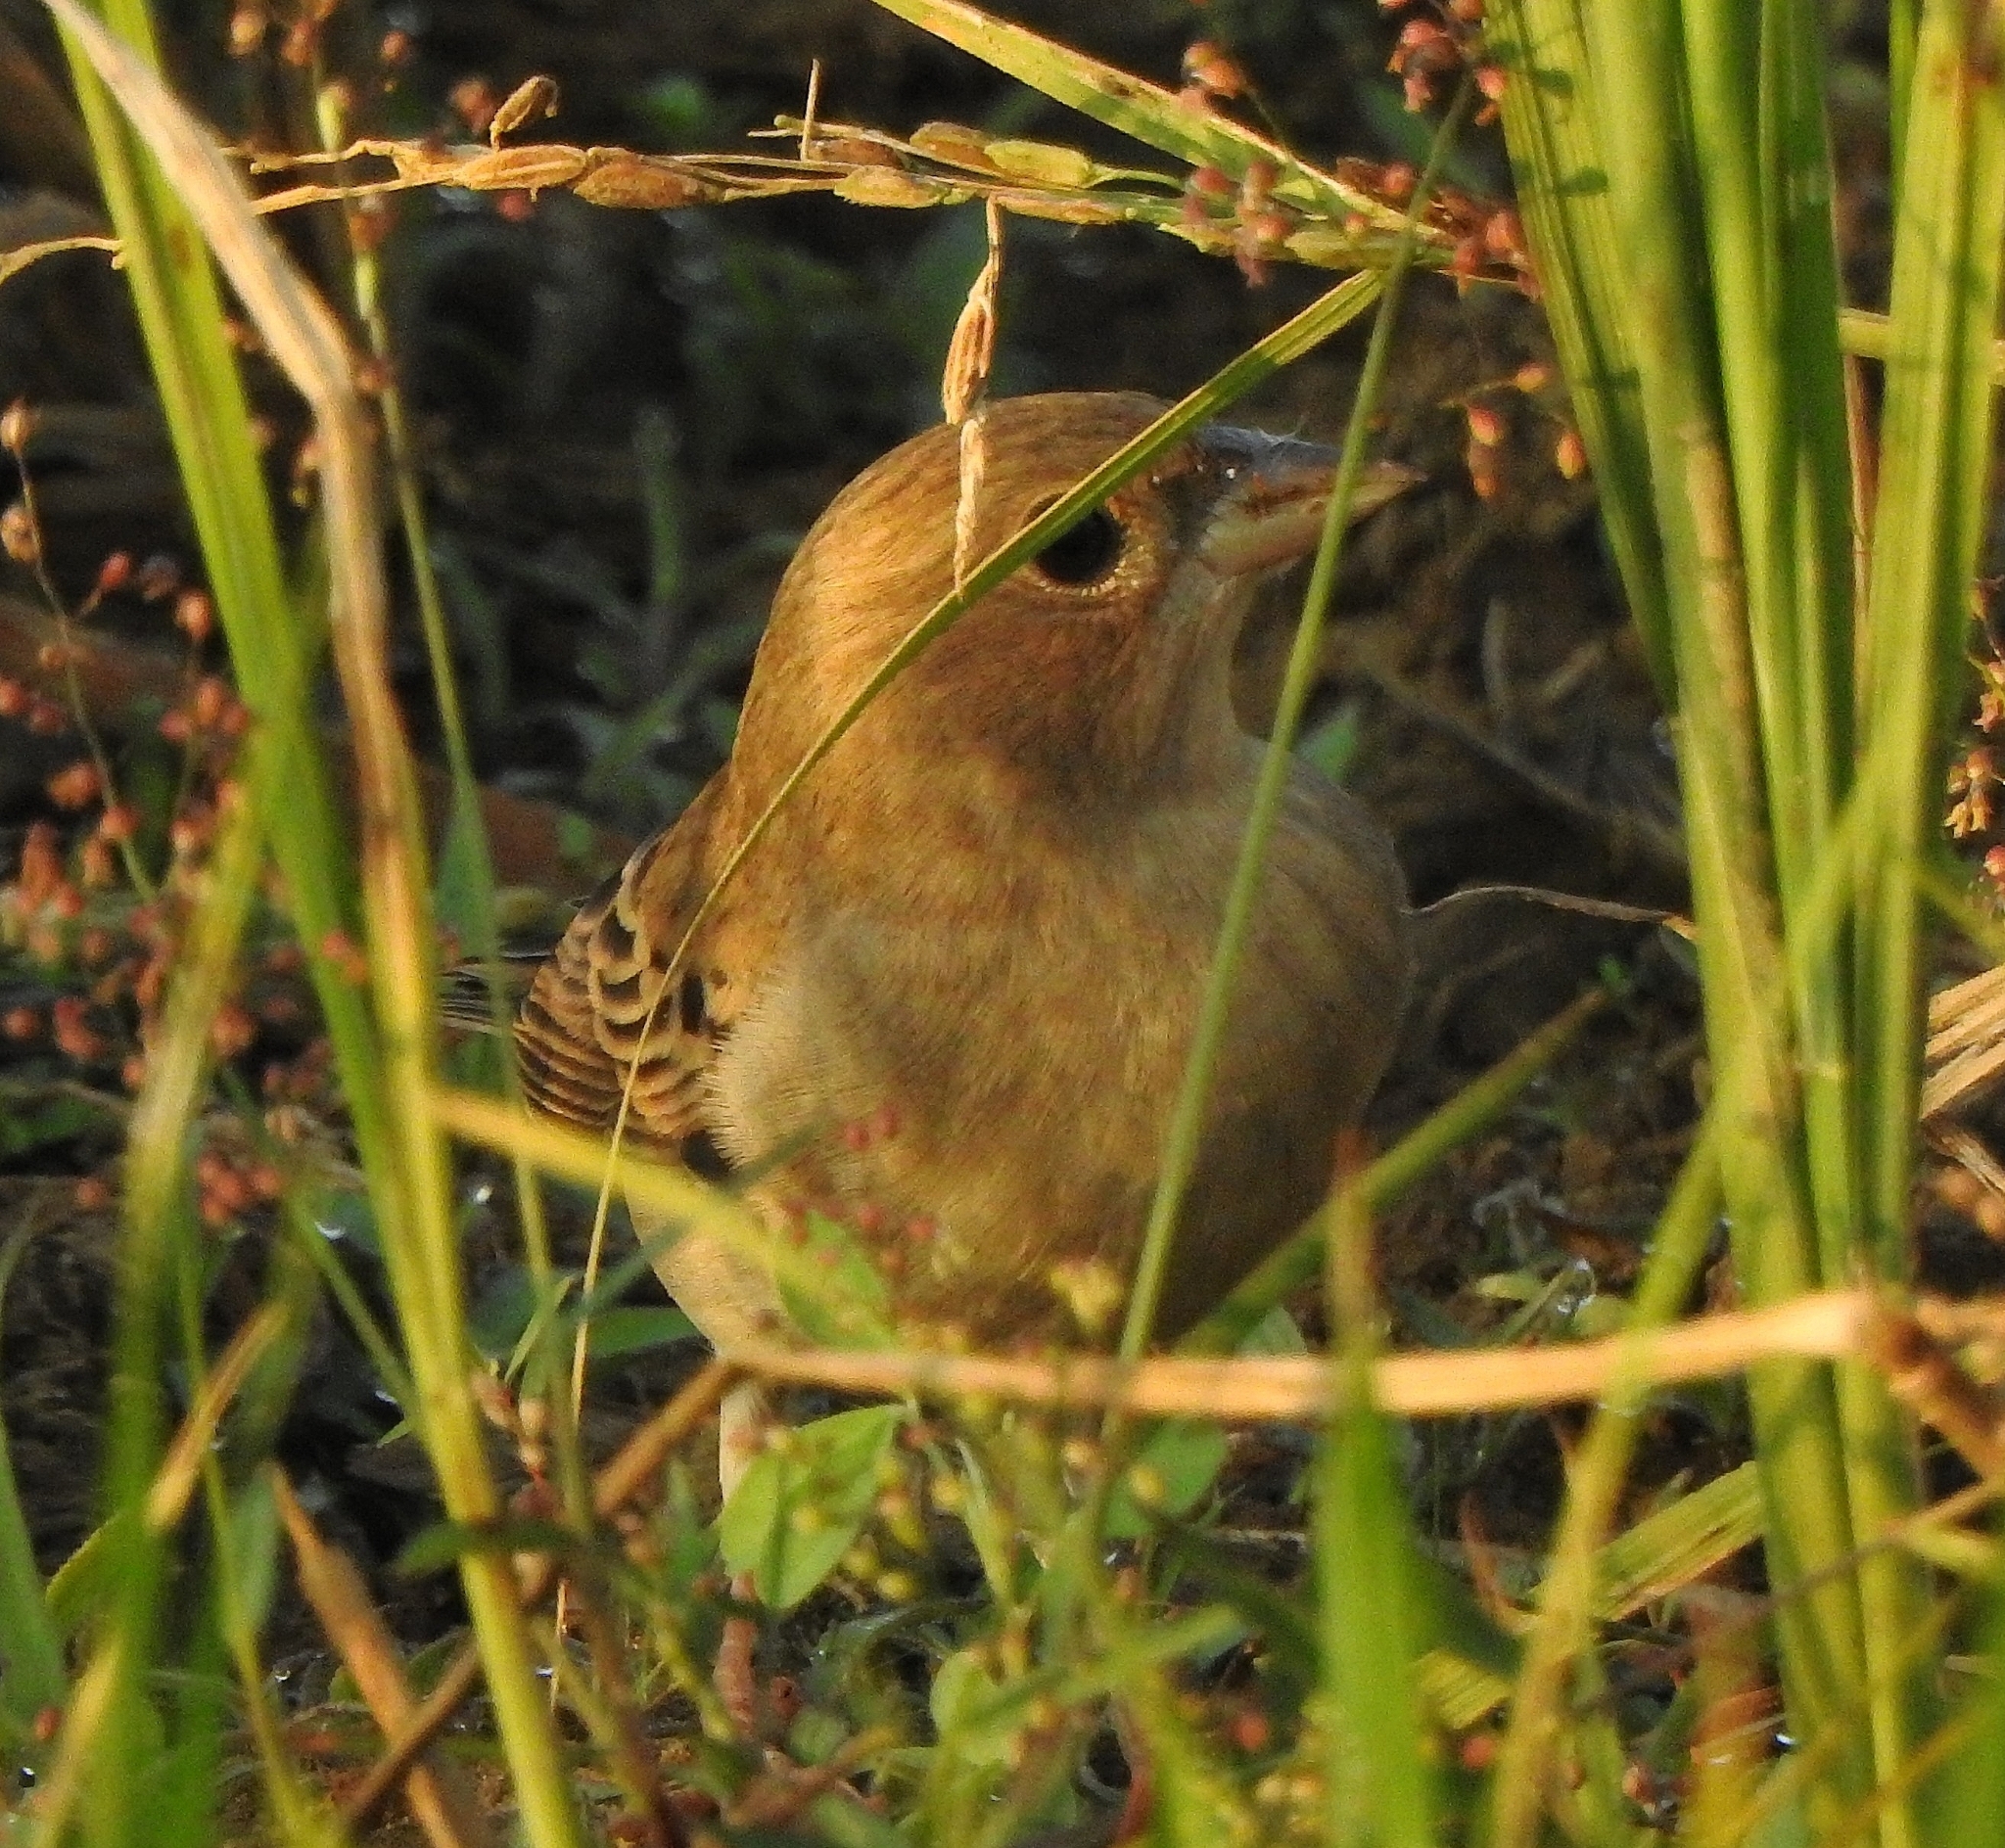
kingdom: Animalia
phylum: Chordata
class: Aves
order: Passeriformes
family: Emberizidae
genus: Emberiza
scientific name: Emberiza bruniceps
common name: Red-headed bunting
